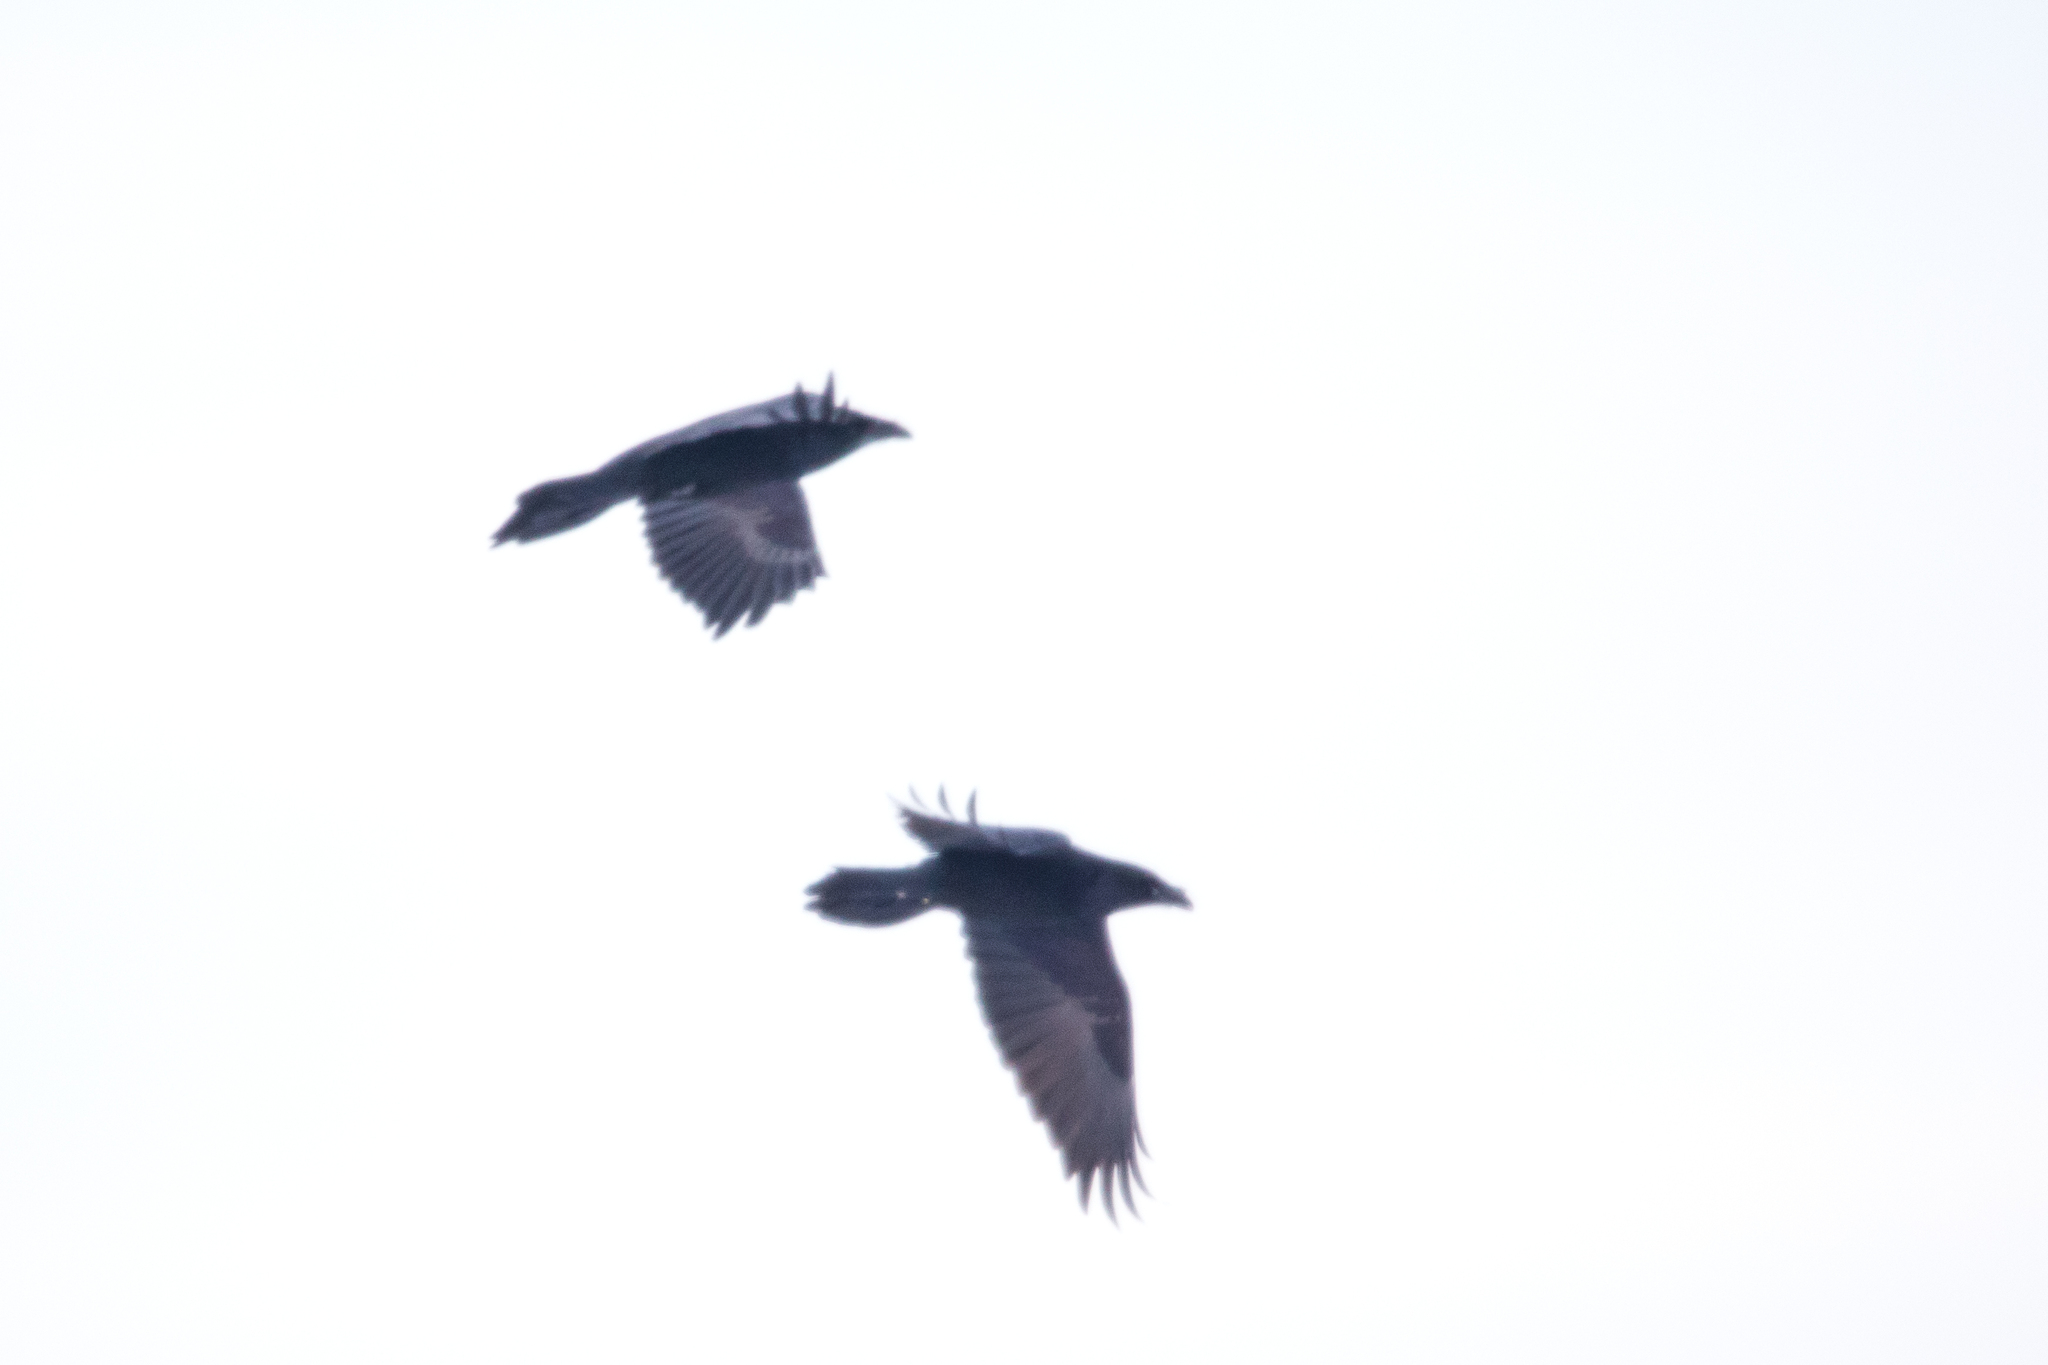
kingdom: Animalia
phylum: Chordata
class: Aves
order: Passeriformes
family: Corvidae
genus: Corvus
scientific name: Corvus corax
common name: Common raven
